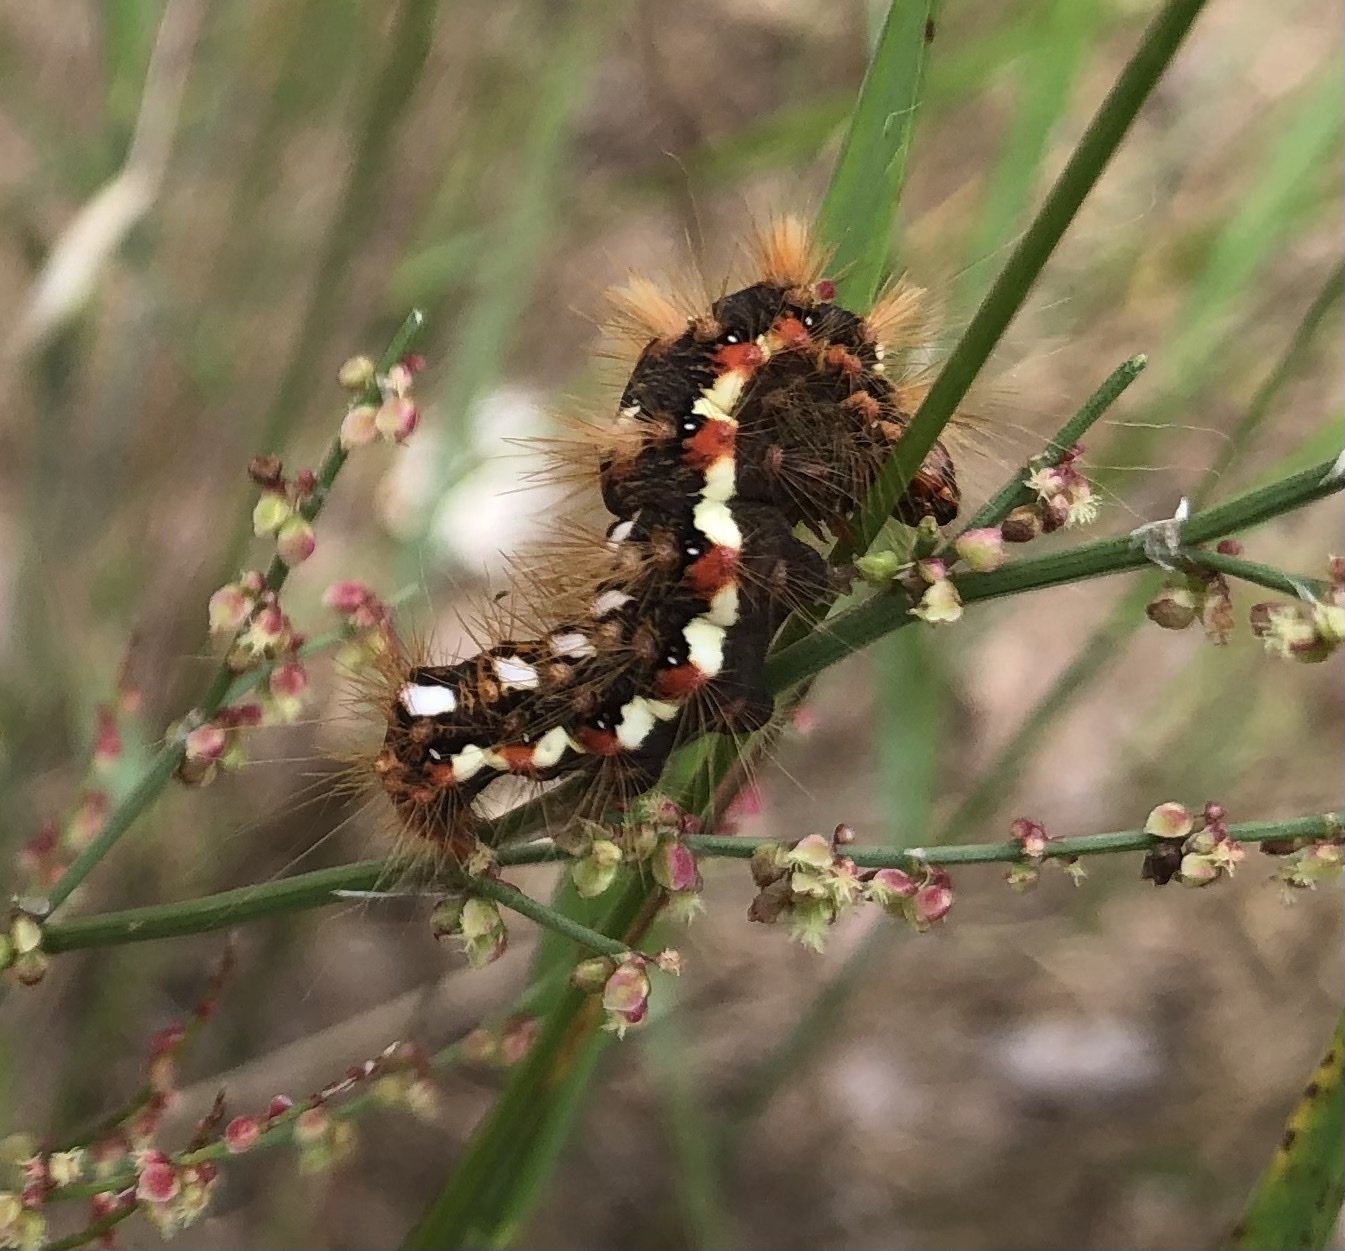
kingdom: Animalia
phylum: Arthropoda
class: Insecta
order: Lepidoptera
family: Noctuidae
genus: Acronicta
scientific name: Acronicta rumicis
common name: Knot grass
